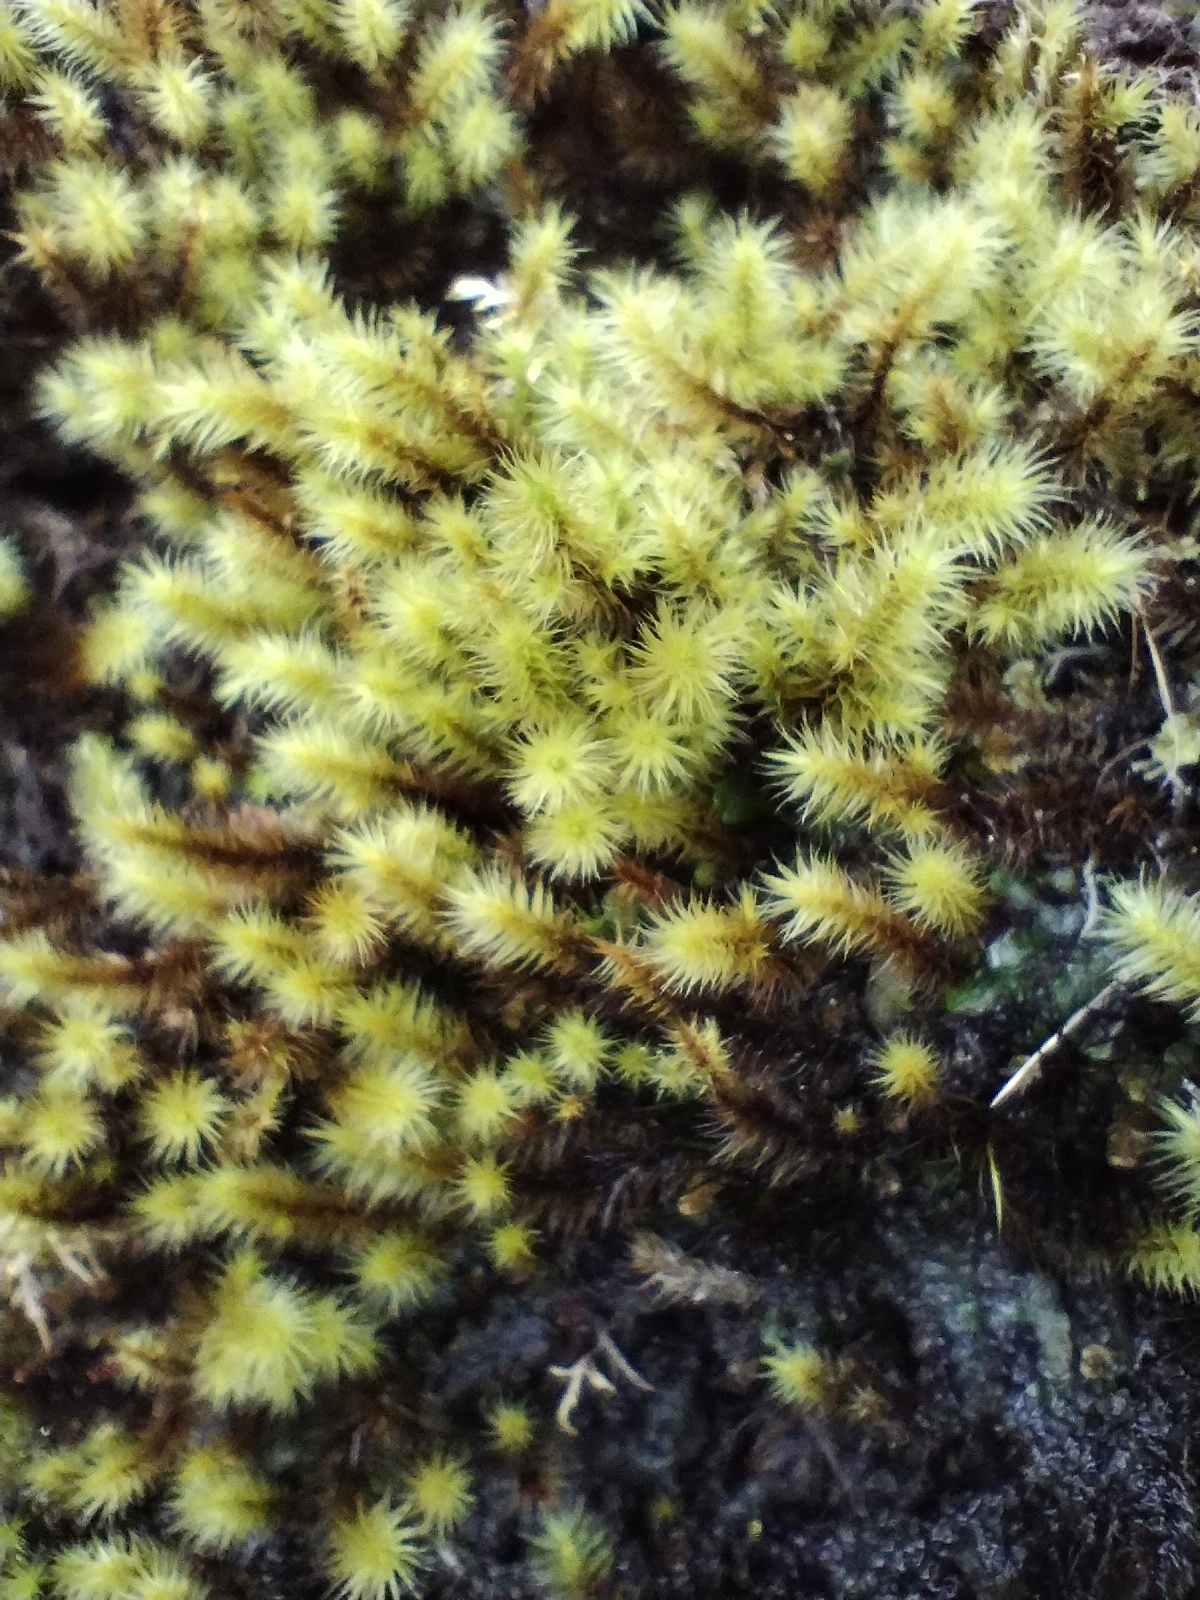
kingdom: Plantae
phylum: Bryophyta
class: Bryopsida
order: Bartramiales
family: Bartramiaceae
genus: Breutelia
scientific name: Breutelia chrysocoma
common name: Bottle-brush moss
